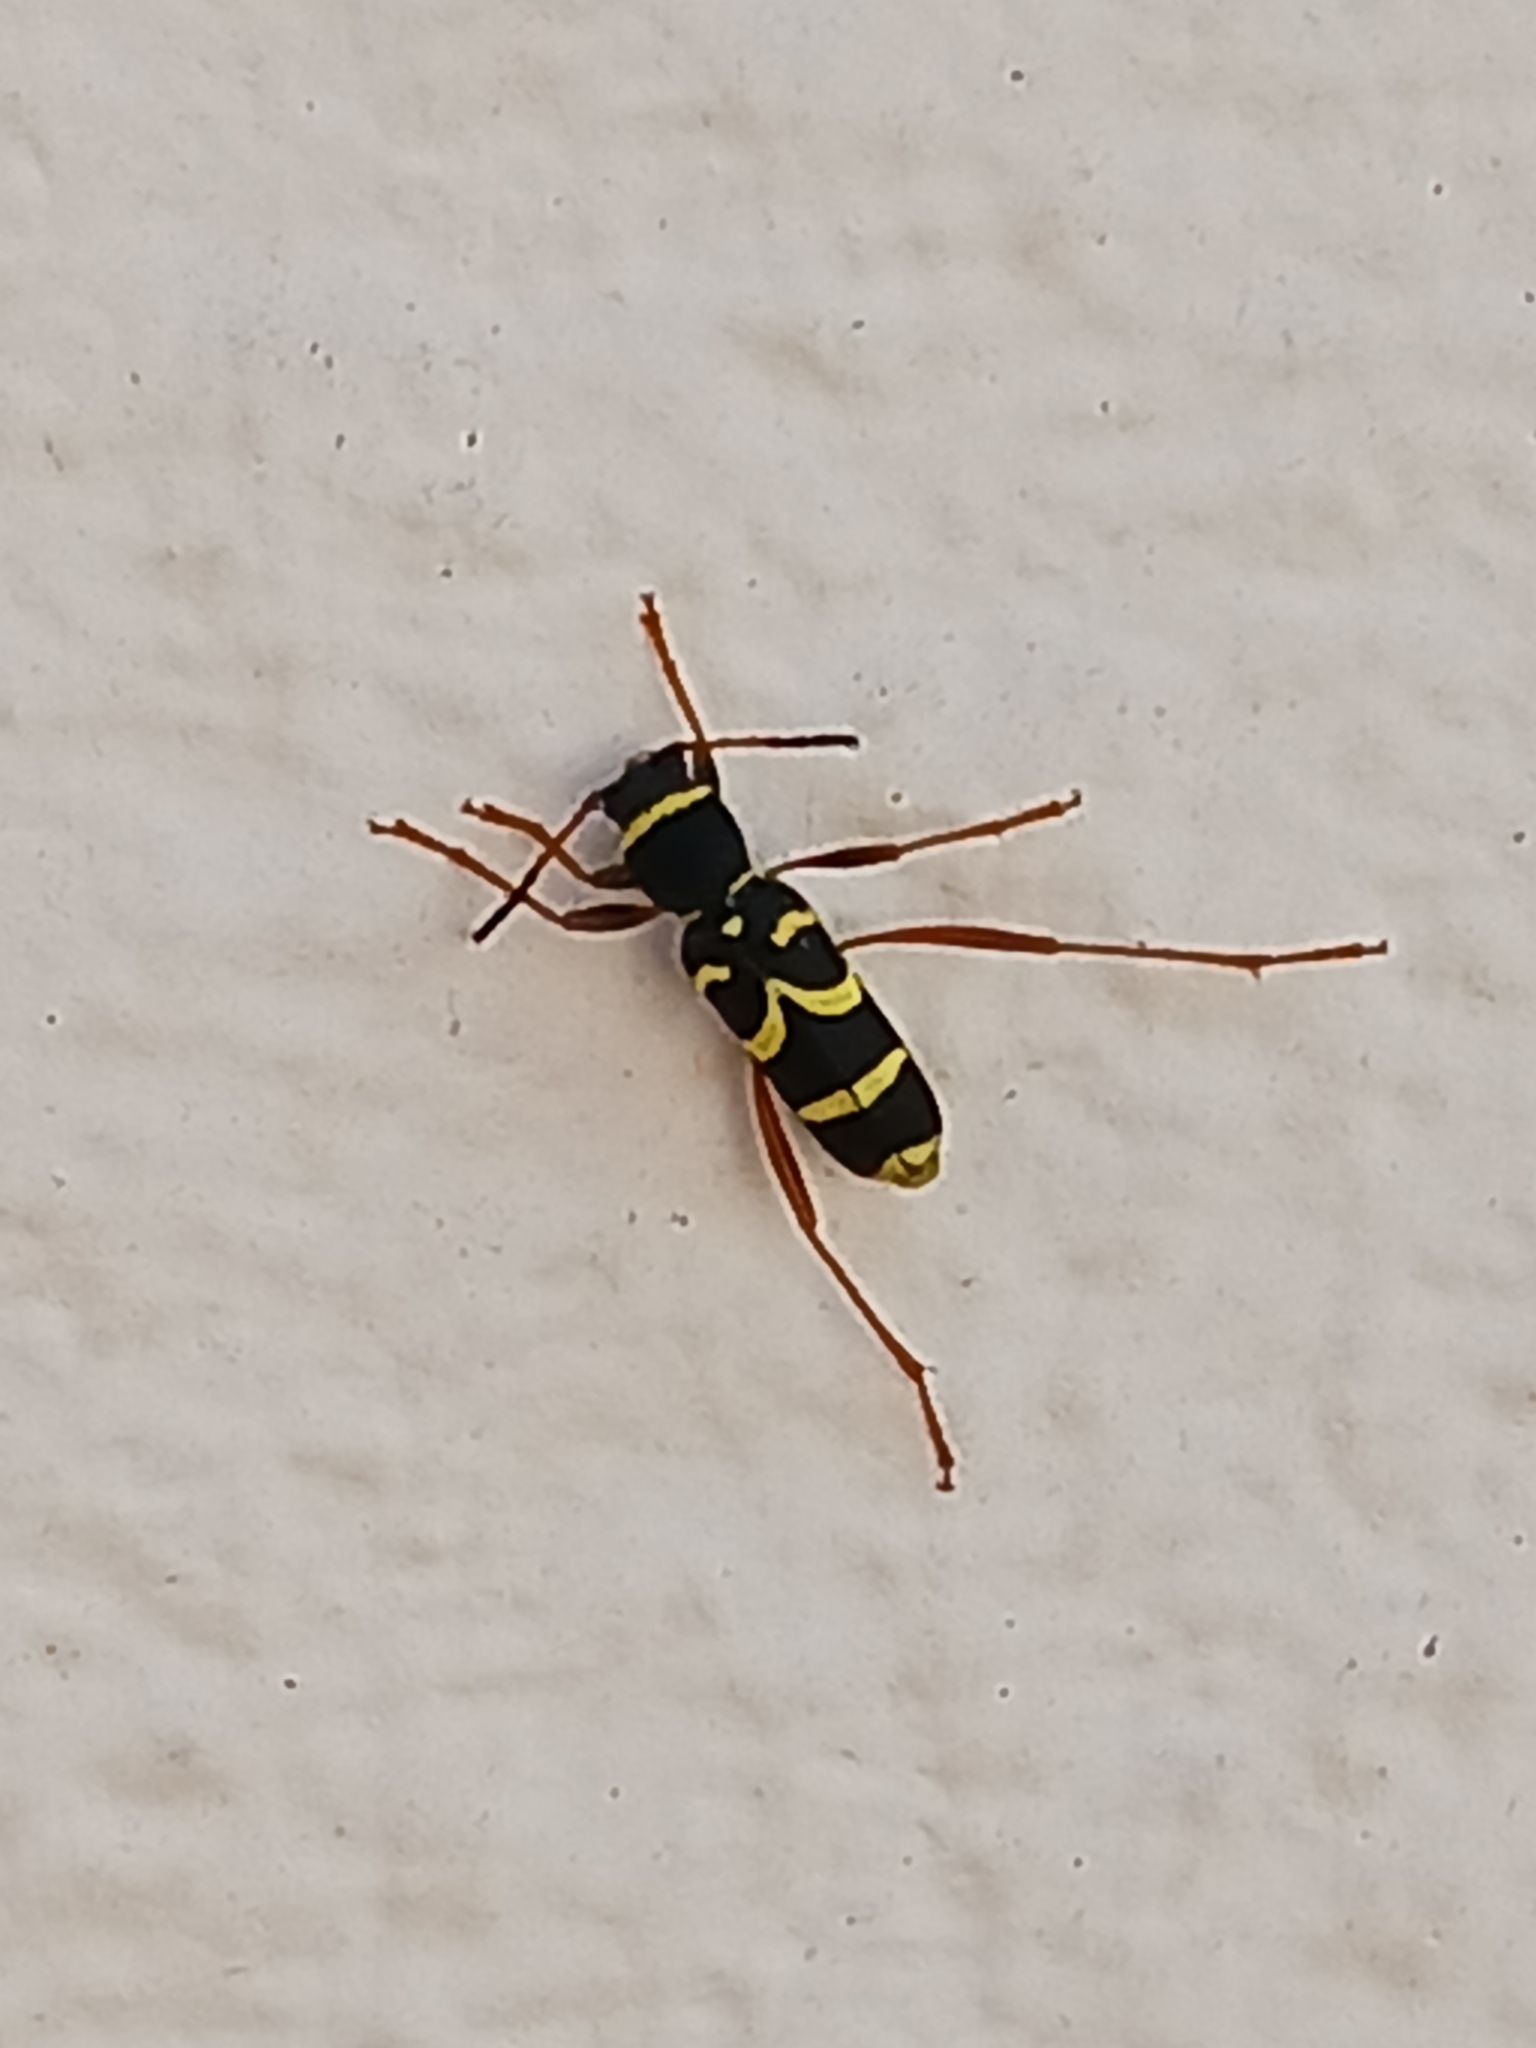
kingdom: Animalia
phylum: Arthropoda
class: Insecta
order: Coleoptera
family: Cerambycidae
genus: Clytus
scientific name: Clytus arietis
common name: Wasp beetle
